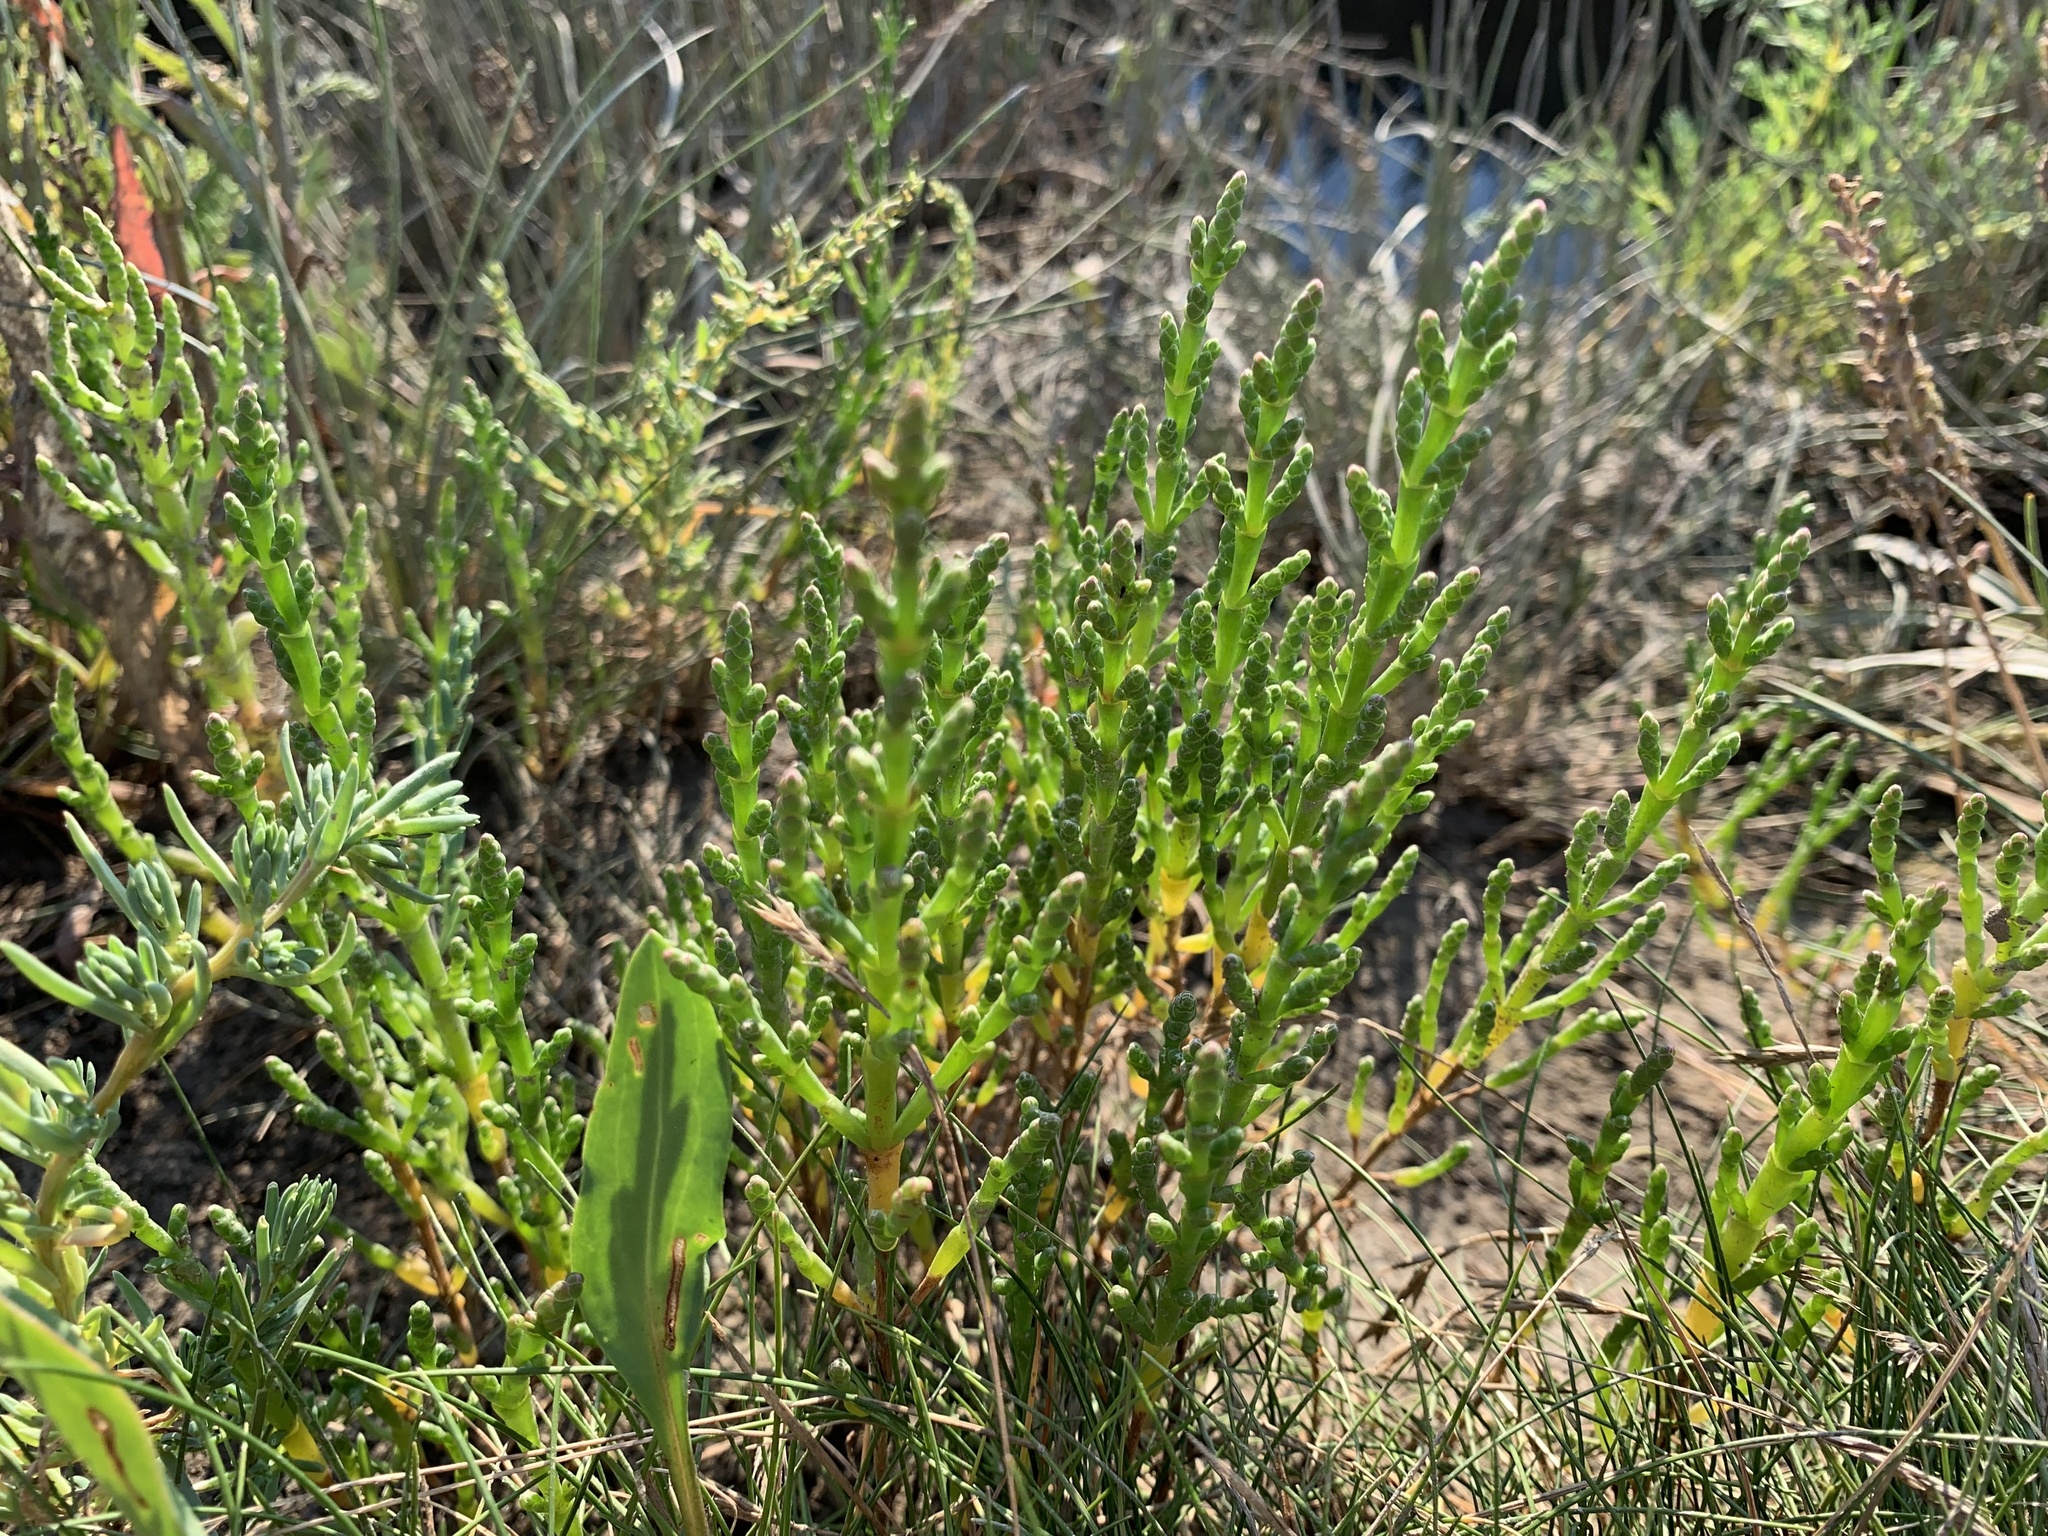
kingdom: Plantae
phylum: Tracheophyta
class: Magnoliopsida
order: Caryophyllales
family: Amaranthaceae
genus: Salicornia
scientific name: Salicornia europaea
